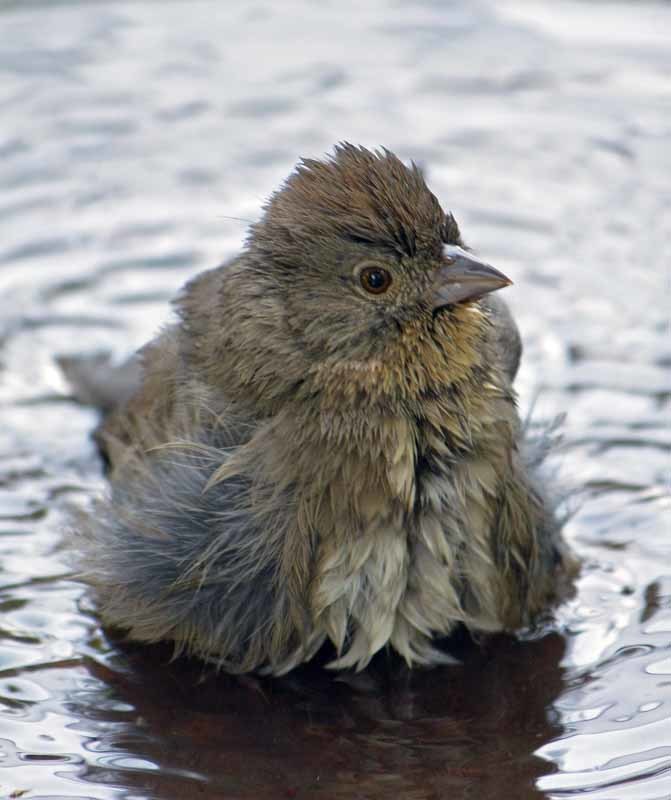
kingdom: Animalia
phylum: Chordata
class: Aves
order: Passeriformes
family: Passerellidae
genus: Melozone
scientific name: Melozone fusca
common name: Canyon towhee
